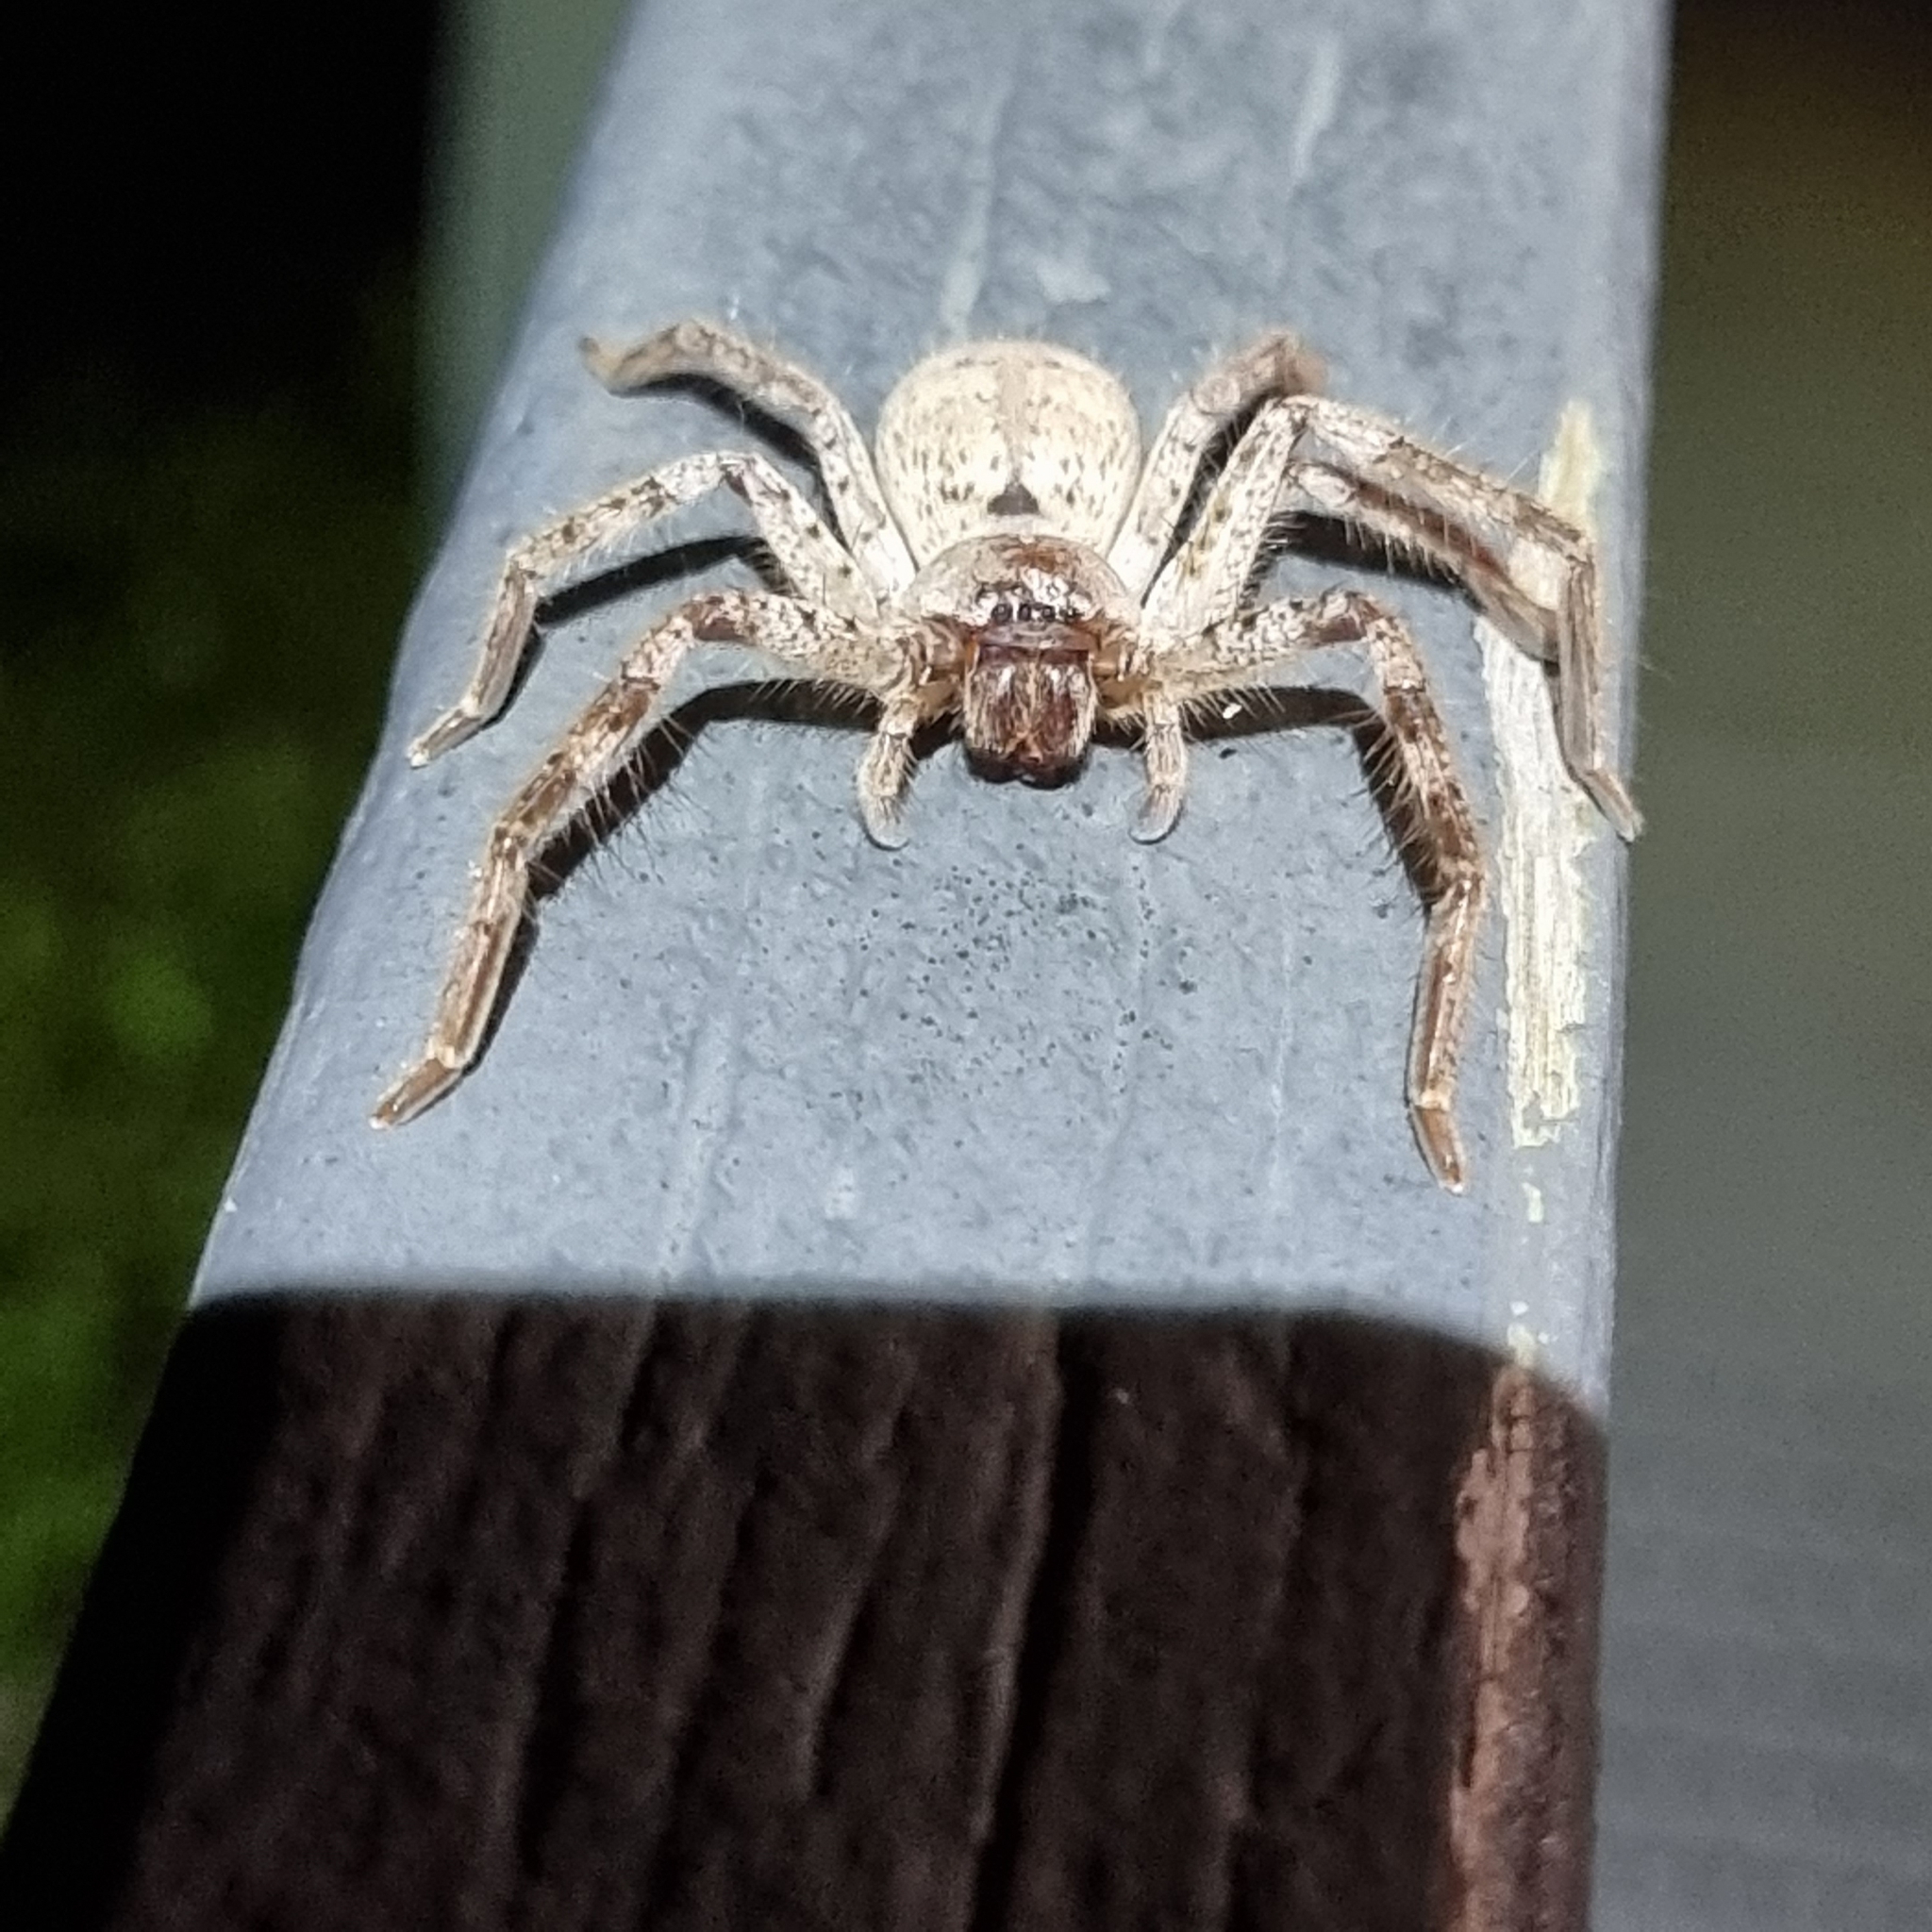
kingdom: Animalia
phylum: Arthropoda
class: Arachnida
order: Araneae
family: Sparassidae
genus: Isopedella
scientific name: Isopedella flavida
